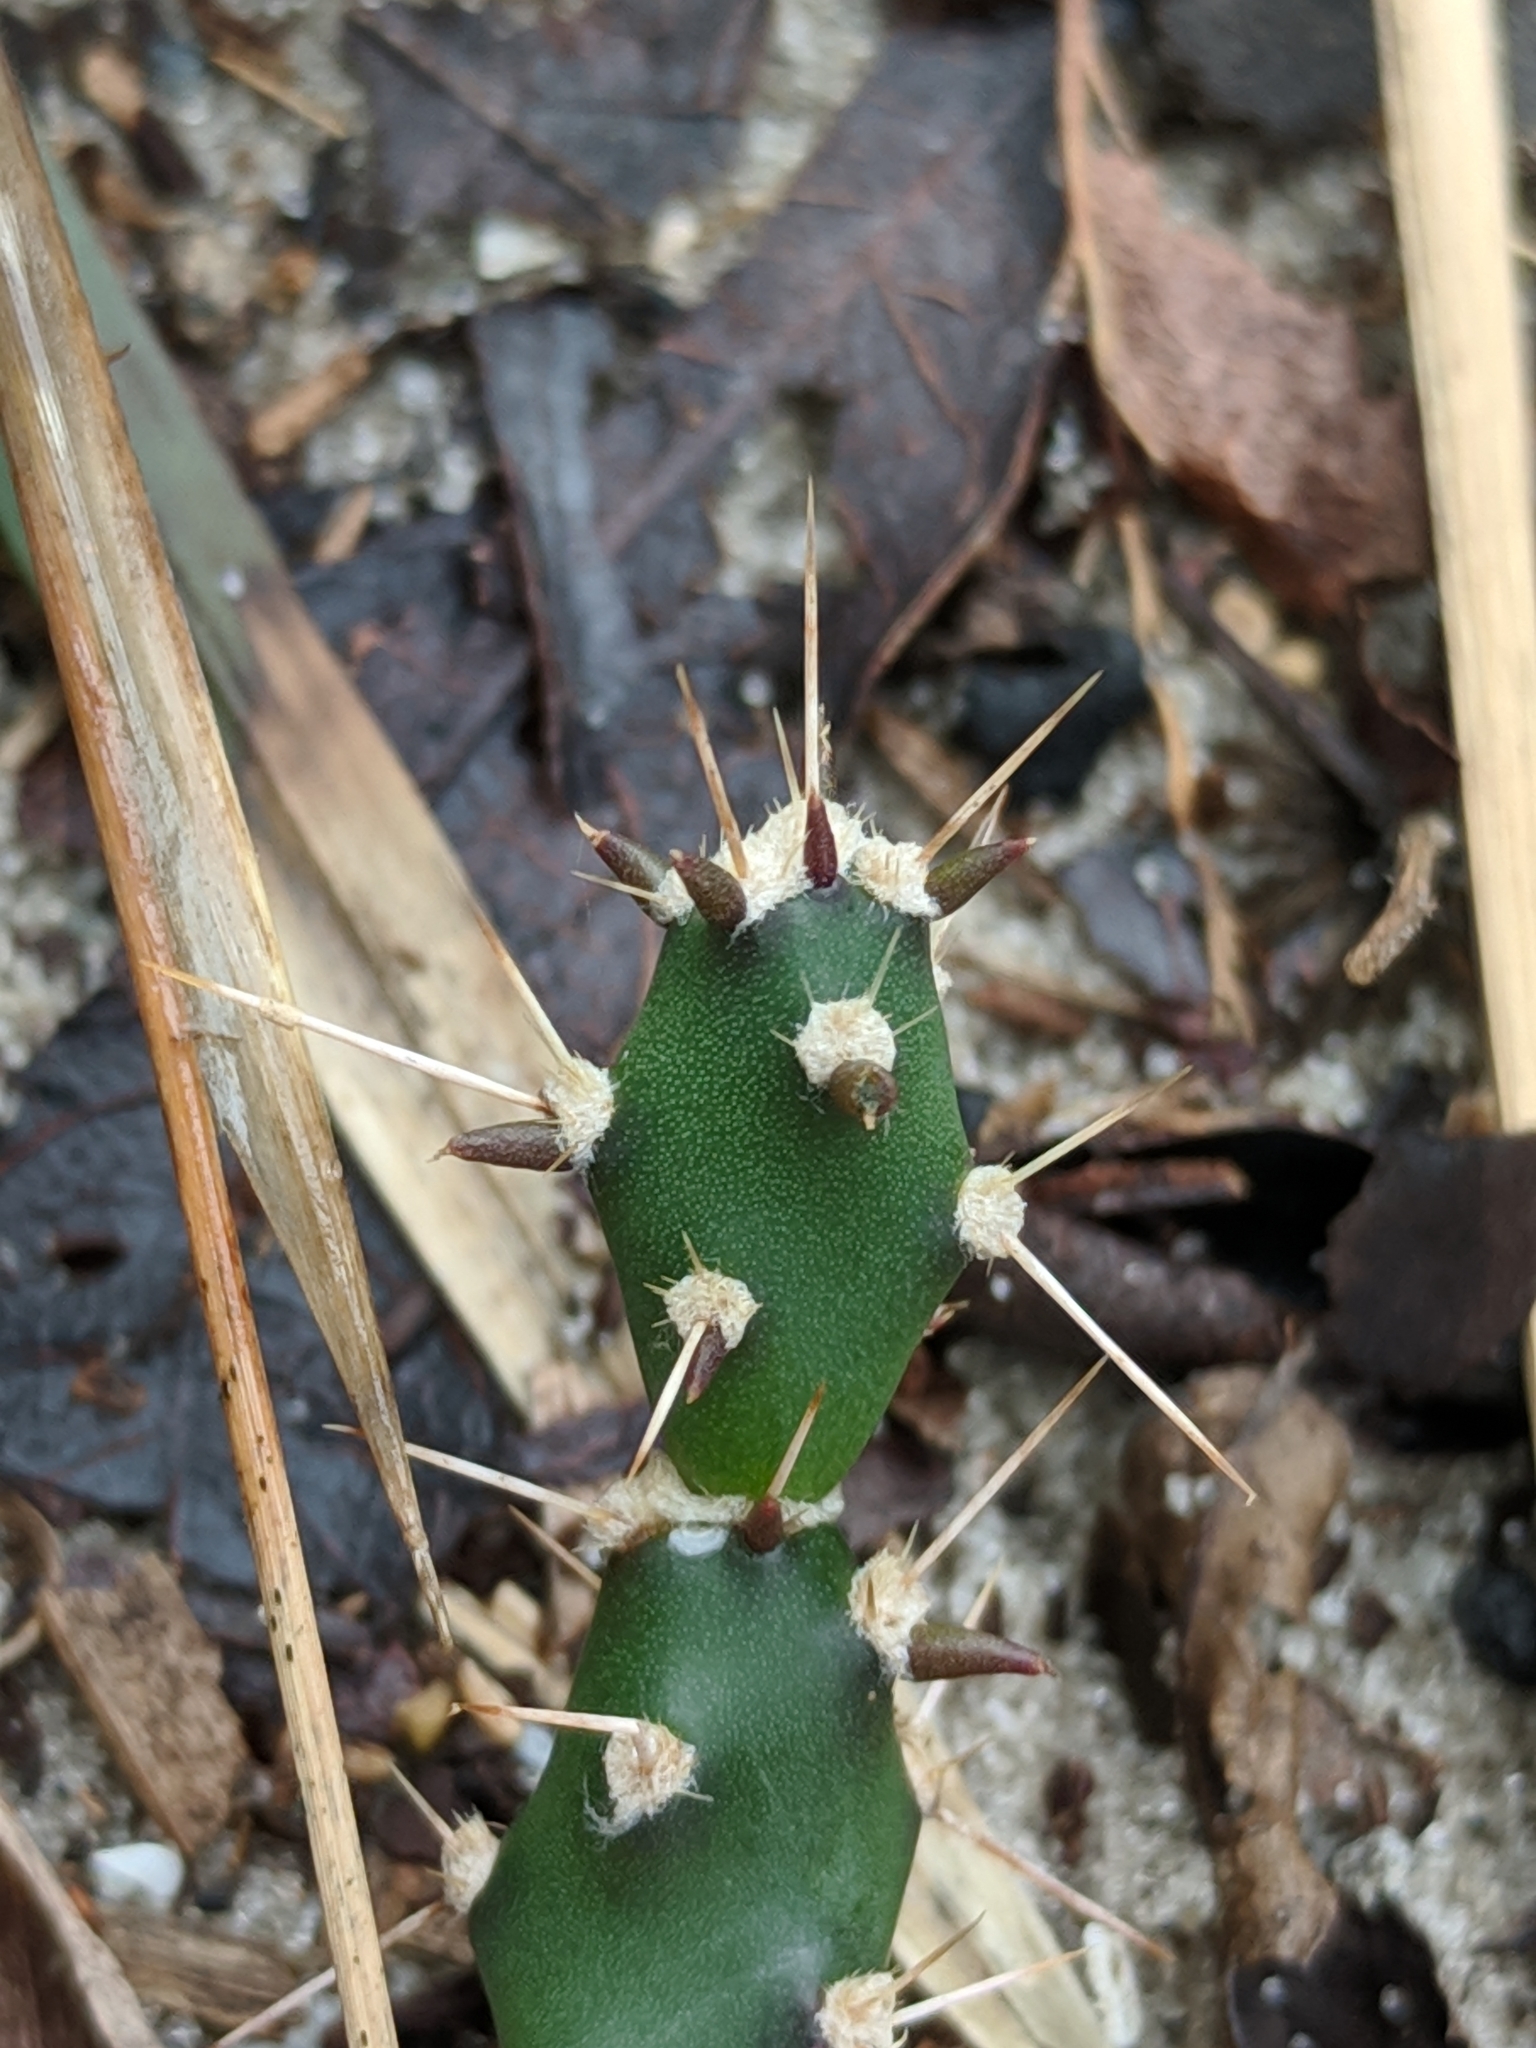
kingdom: Plantae
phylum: Tracheophyta
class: Magnoliopsida
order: Caryophyllales
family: Cactaceae
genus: Opuntia
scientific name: Opuntia drummondii
